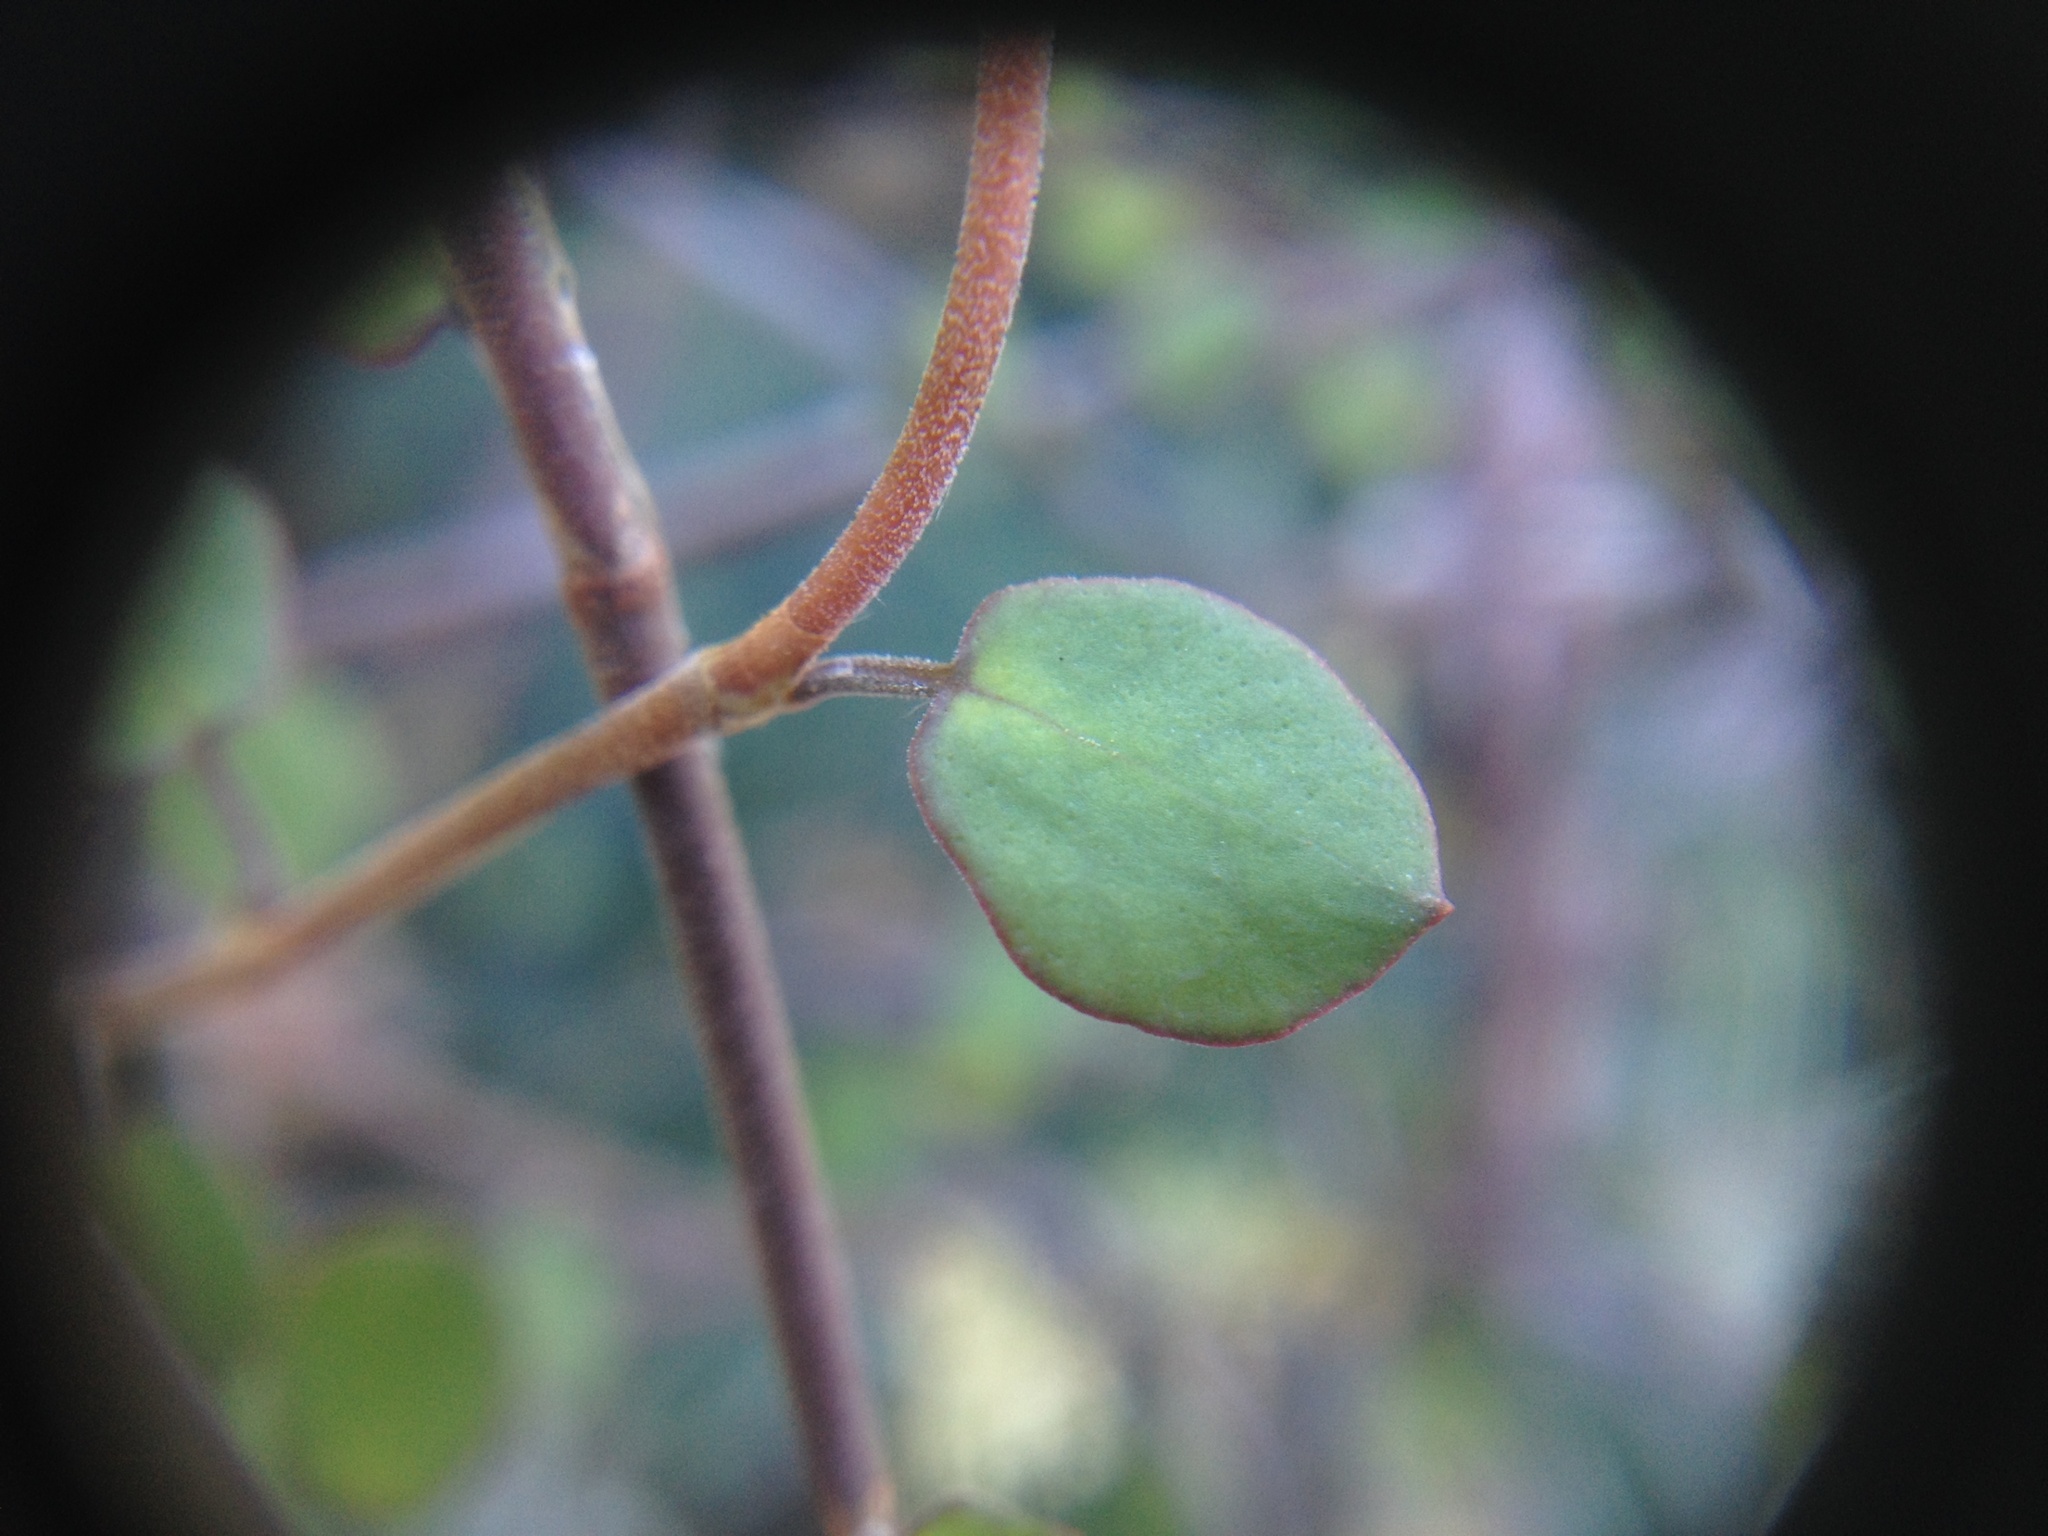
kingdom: Plantae
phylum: Tracheophyta
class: Magnoliopsida
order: Caryophyllales
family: Polygonaceae
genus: Muehlenbeckia
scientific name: Muehlenbeckia complexa
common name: Wireplant
